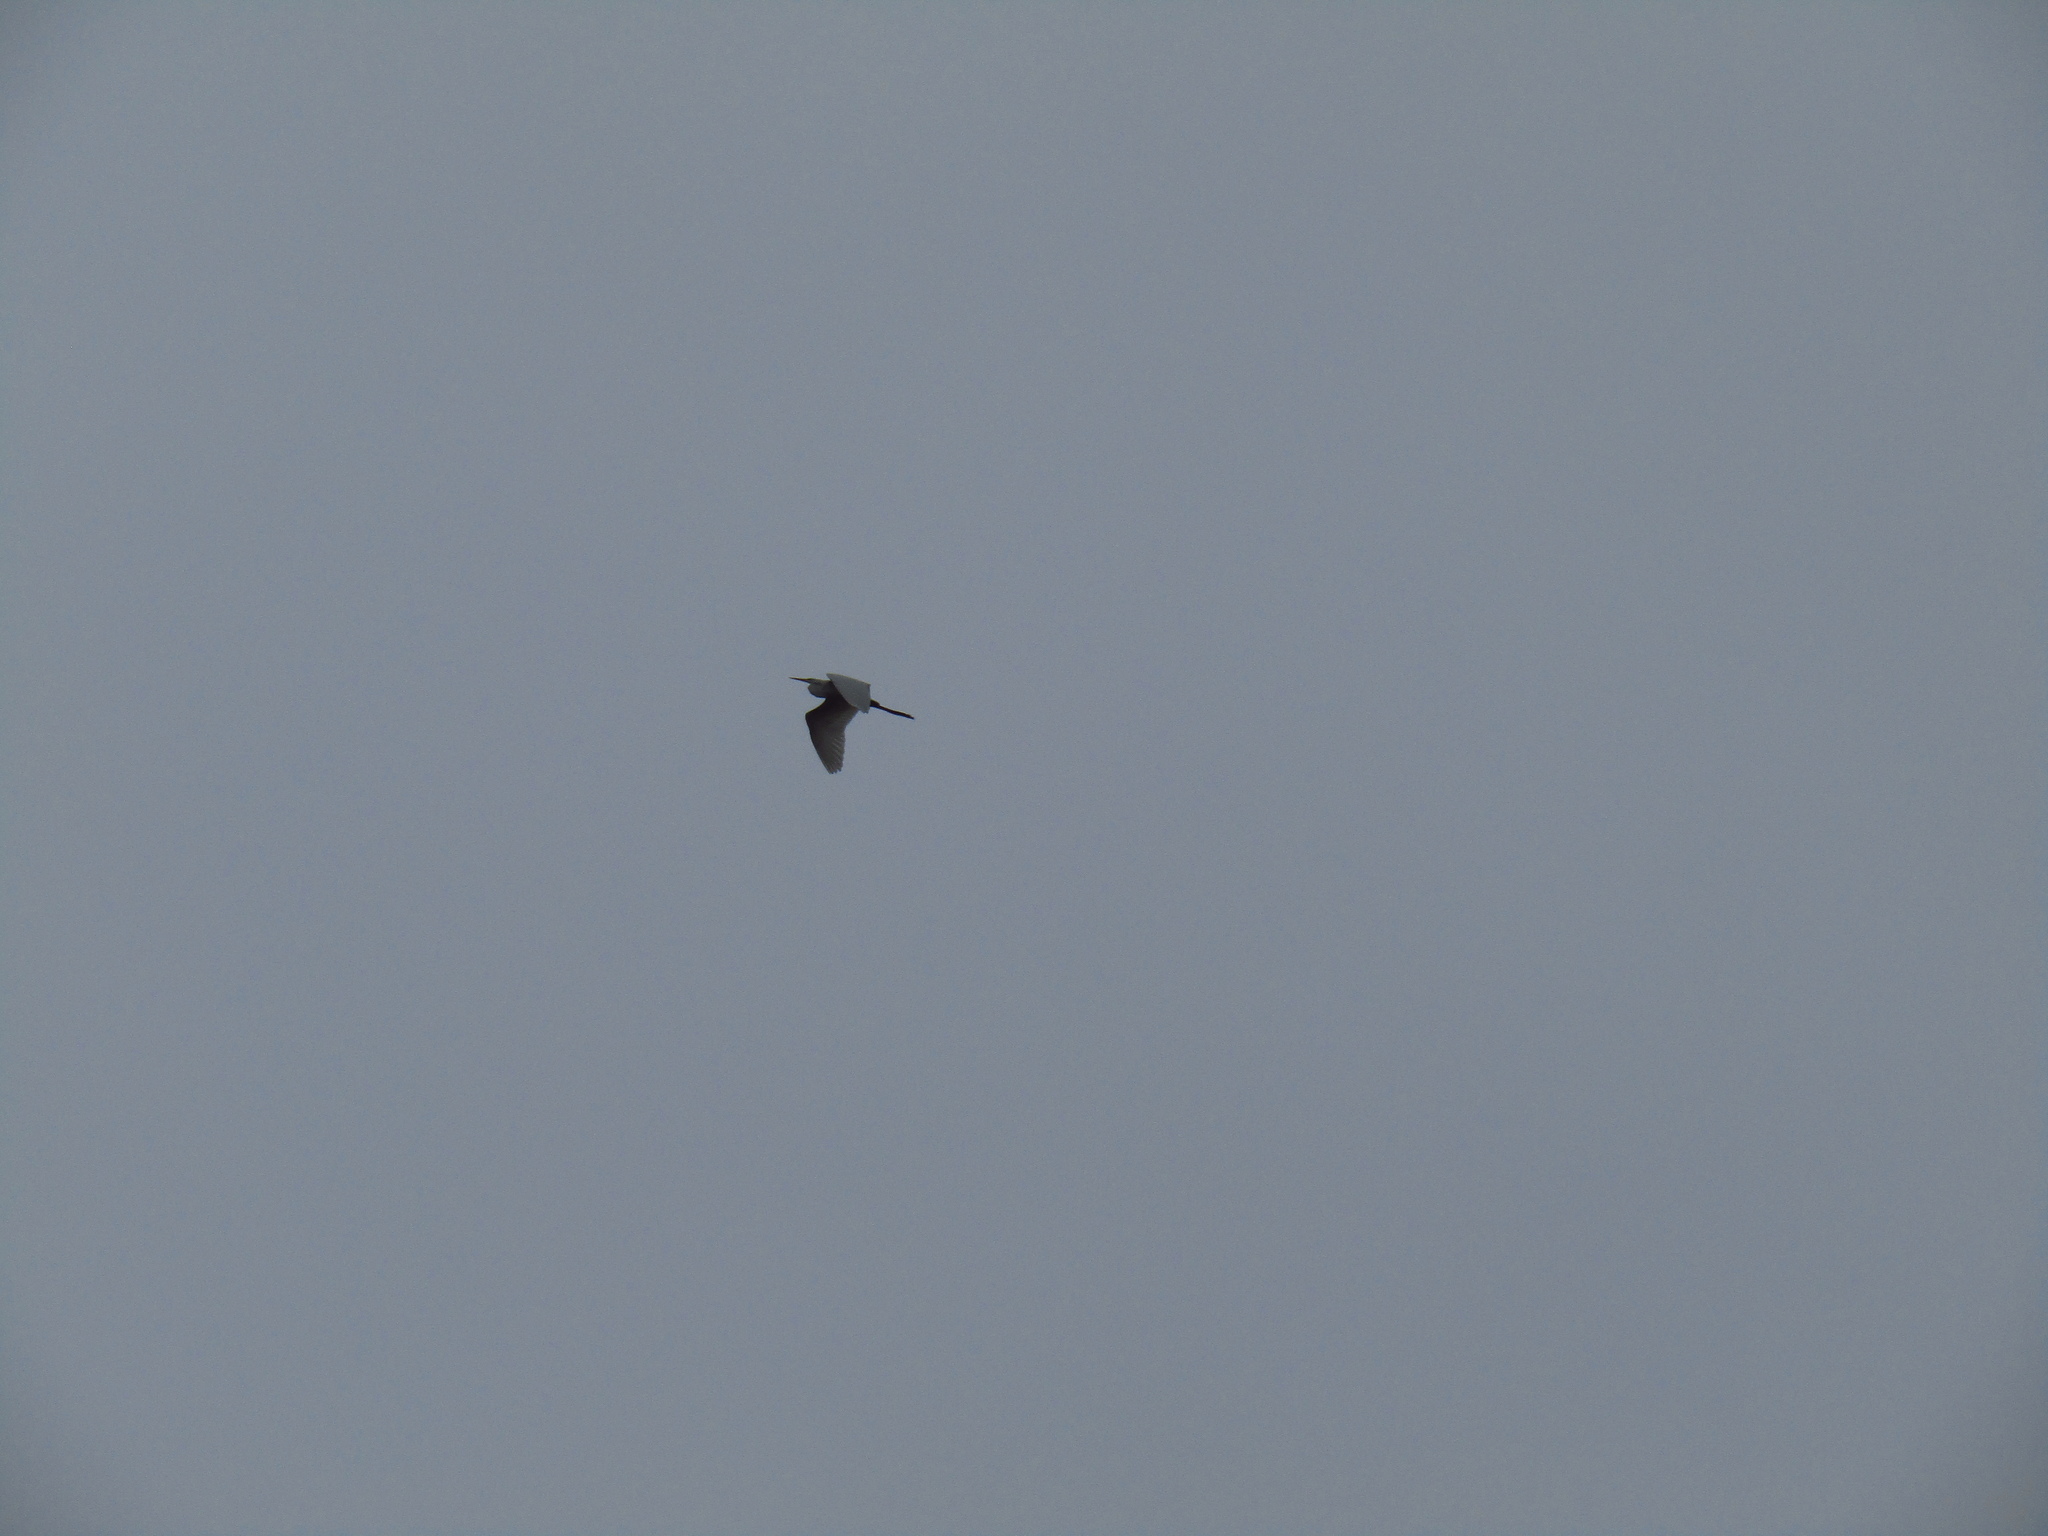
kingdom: Animalia
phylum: Chordata
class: Aves
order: Pelecaniformes
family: Ardeidae
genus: Ardea
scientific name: Ardea alba
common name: Great egret
